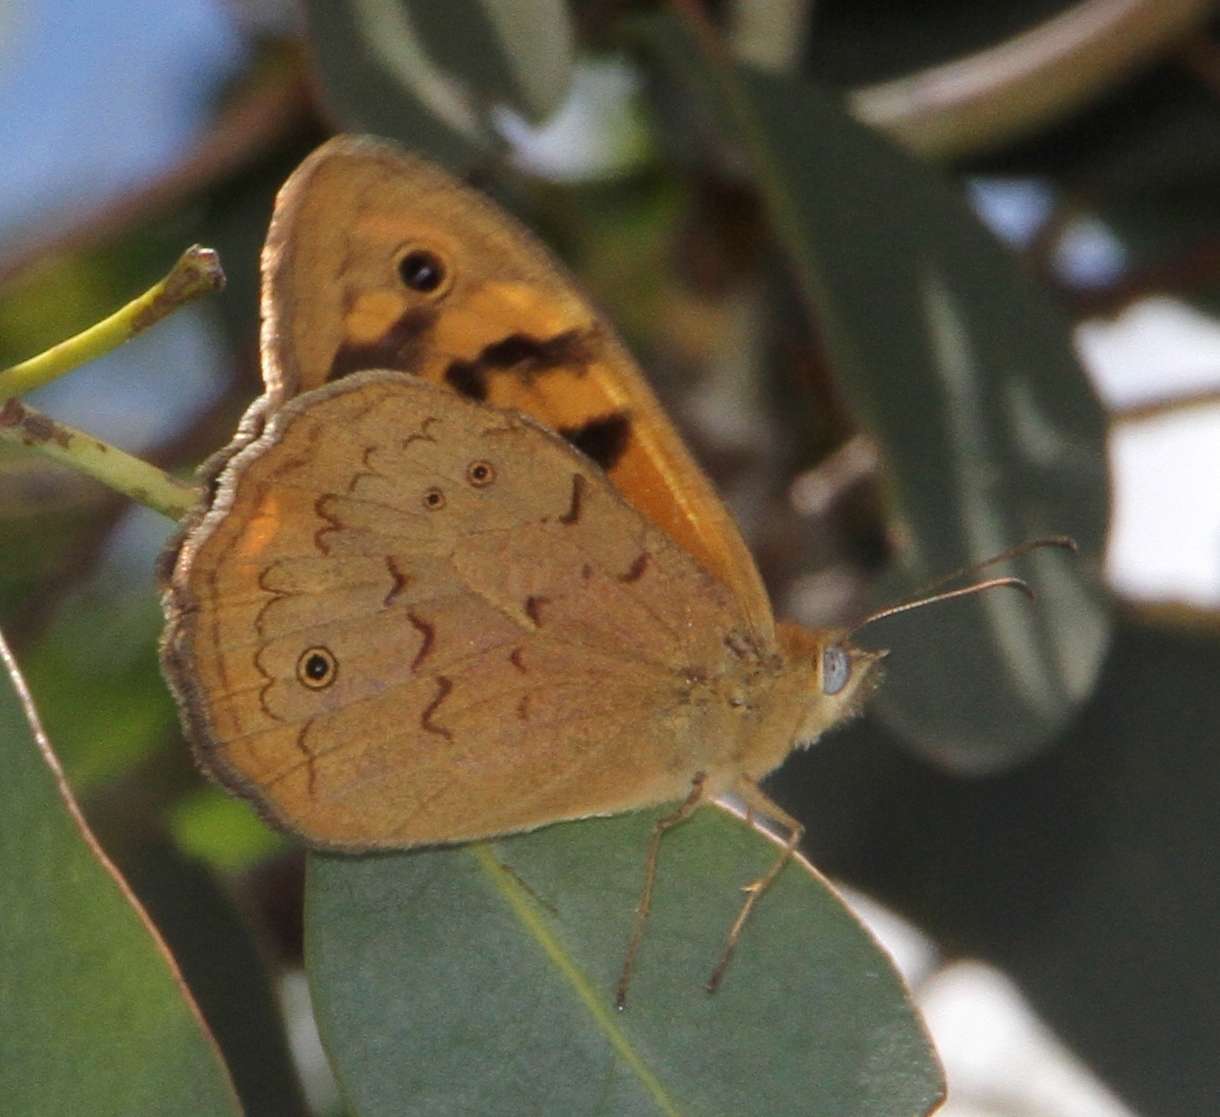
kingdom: Animalia
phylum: Arthropoda
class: Insecta
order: Lepidoptera
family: Nymphalidae
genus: Heteronympha
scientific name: Heteronympha merope
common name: Common brown
